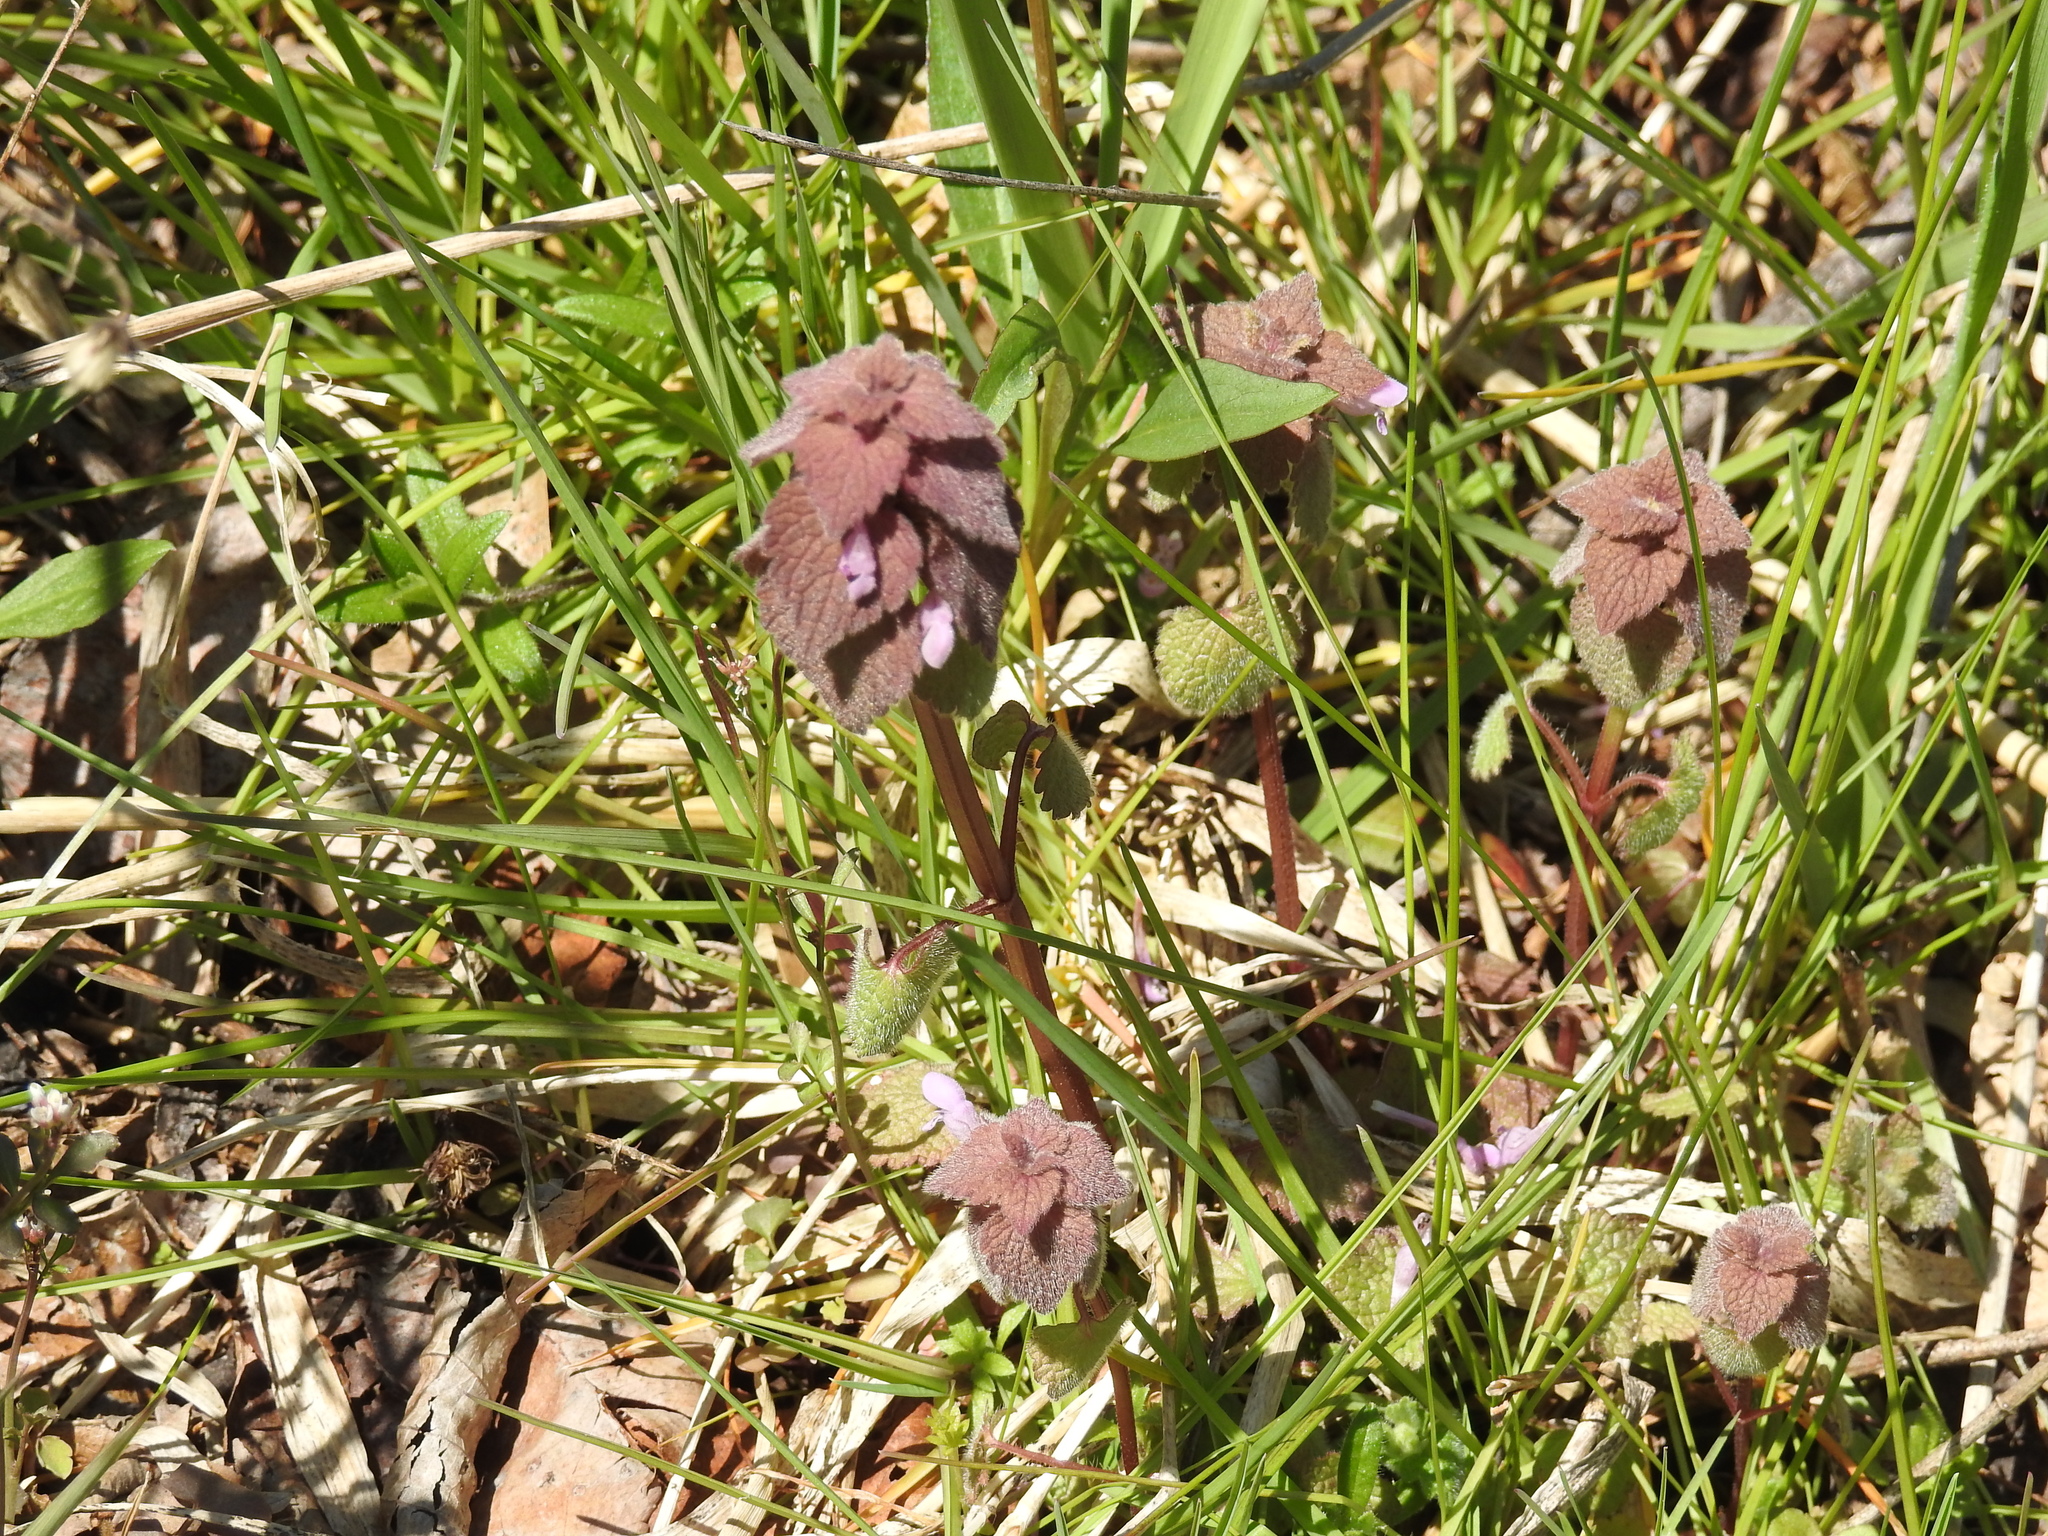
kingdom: Plantae
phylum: Tracheophyta
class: Magnoliopsida
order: Lamiales
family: Lamiaceae
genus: Lamium
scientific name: Lamium purpureum
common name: Red dead-nettle
